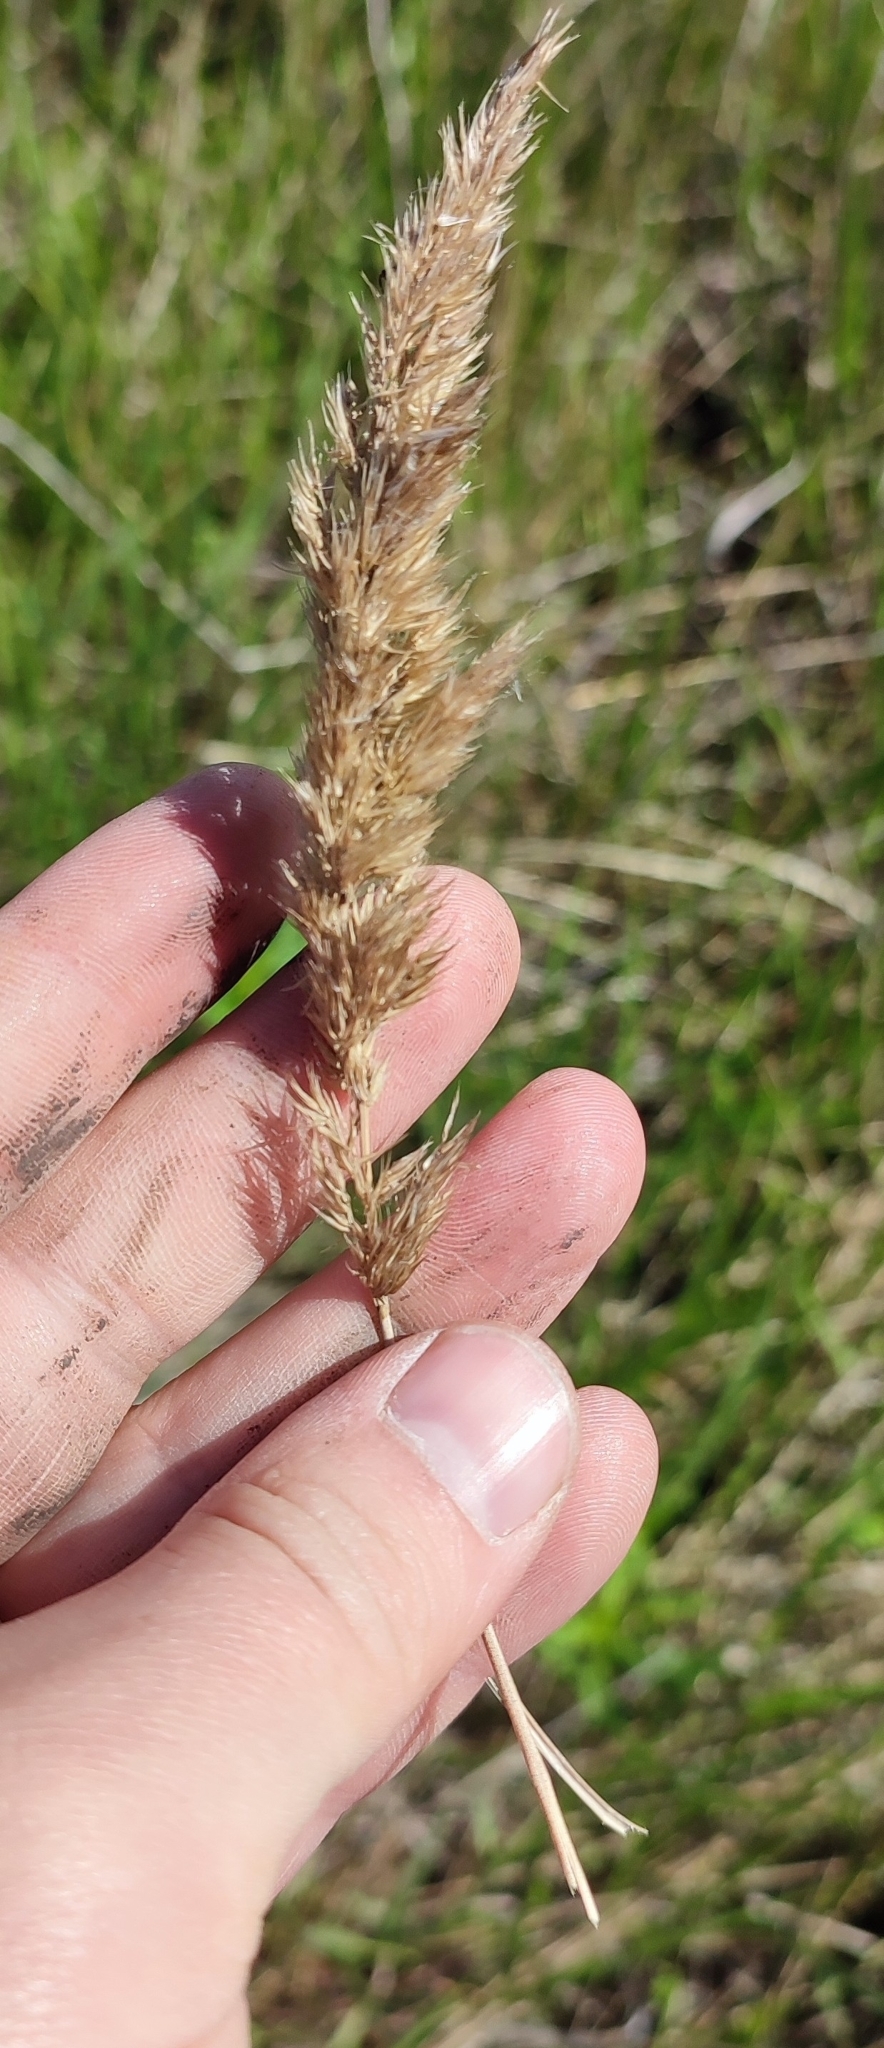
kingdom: Plantae
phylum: Tracheophyta
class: Liliopsida
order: Poales
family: Poaceae
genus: Calamagrostis
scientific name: Calamagrostis epigejos
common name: Wood small-reed
